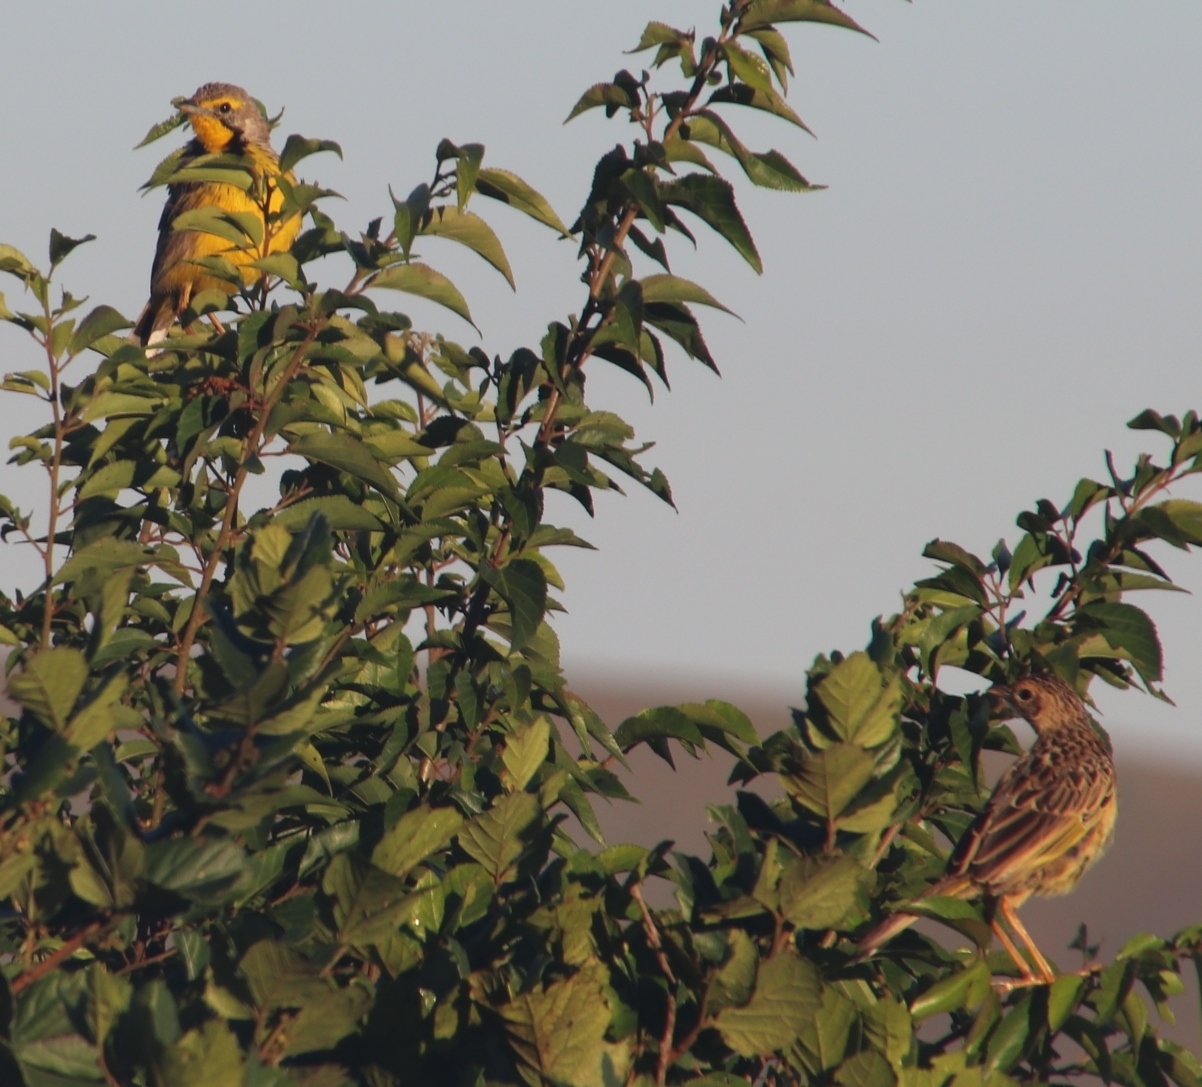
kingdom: Animalia
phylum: Chordata
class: Aves
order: Passeriformes
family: Motacillidae
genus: Macronyx
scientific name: Macronyx croceus
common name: Yellow-throated longclaw
